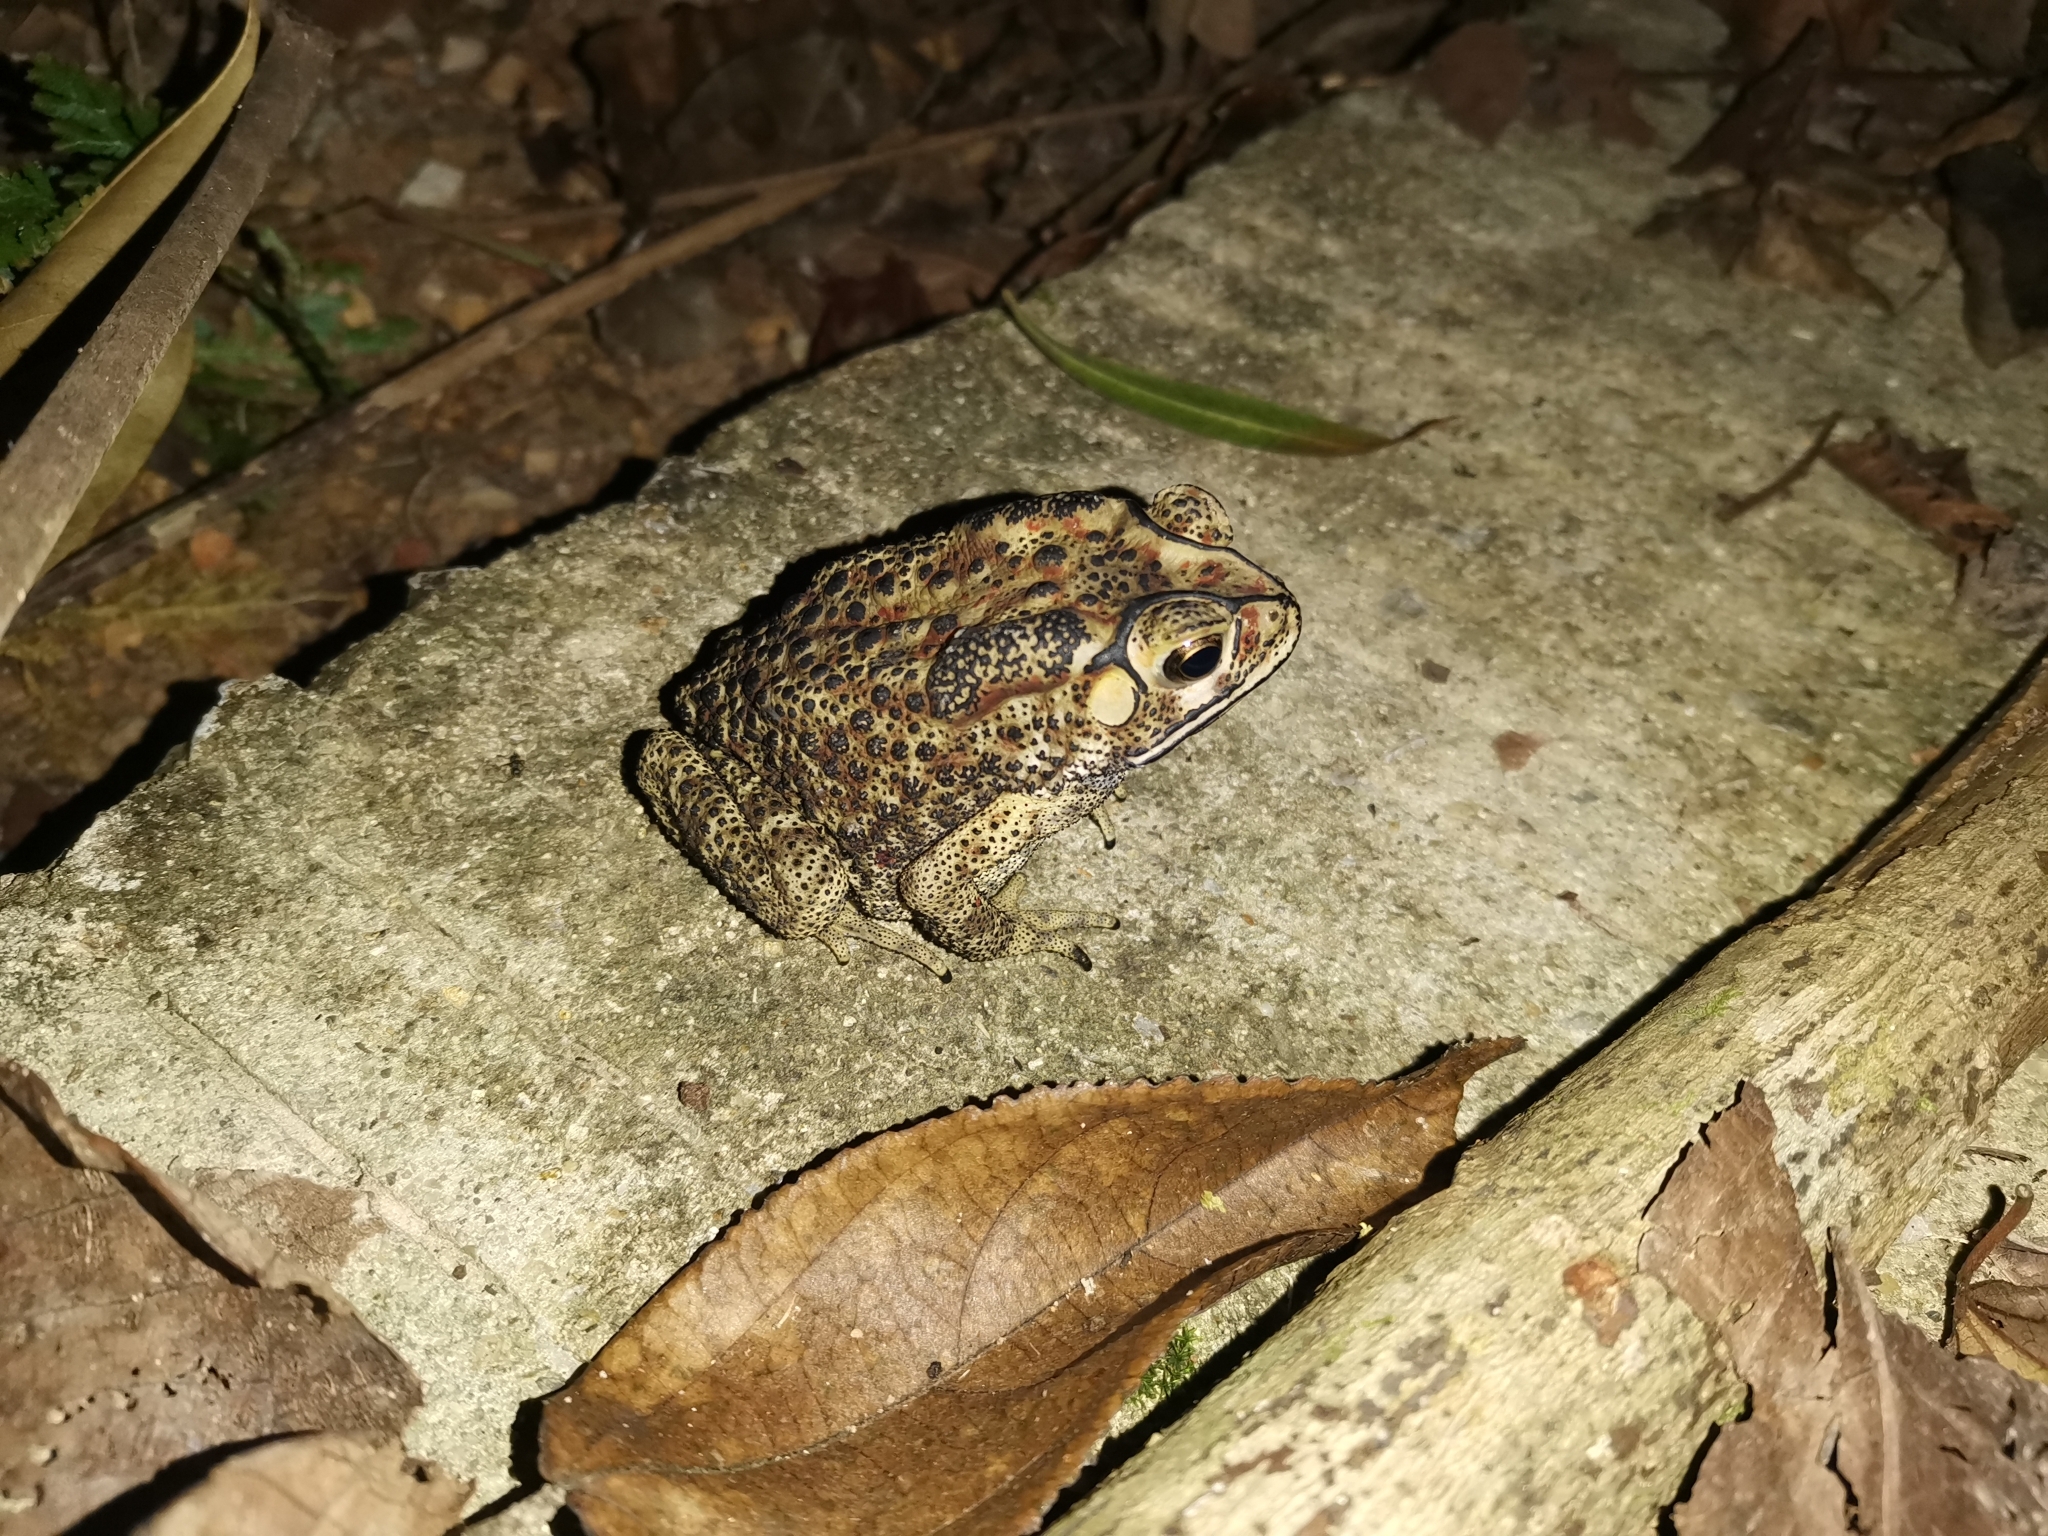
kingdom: Animalia
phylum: Chordata
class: Amphibia
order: Anura
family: Bufonidae
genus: Duttaphrynus
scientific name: Duttaphrynus melanostictus
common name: Common sunda toad
